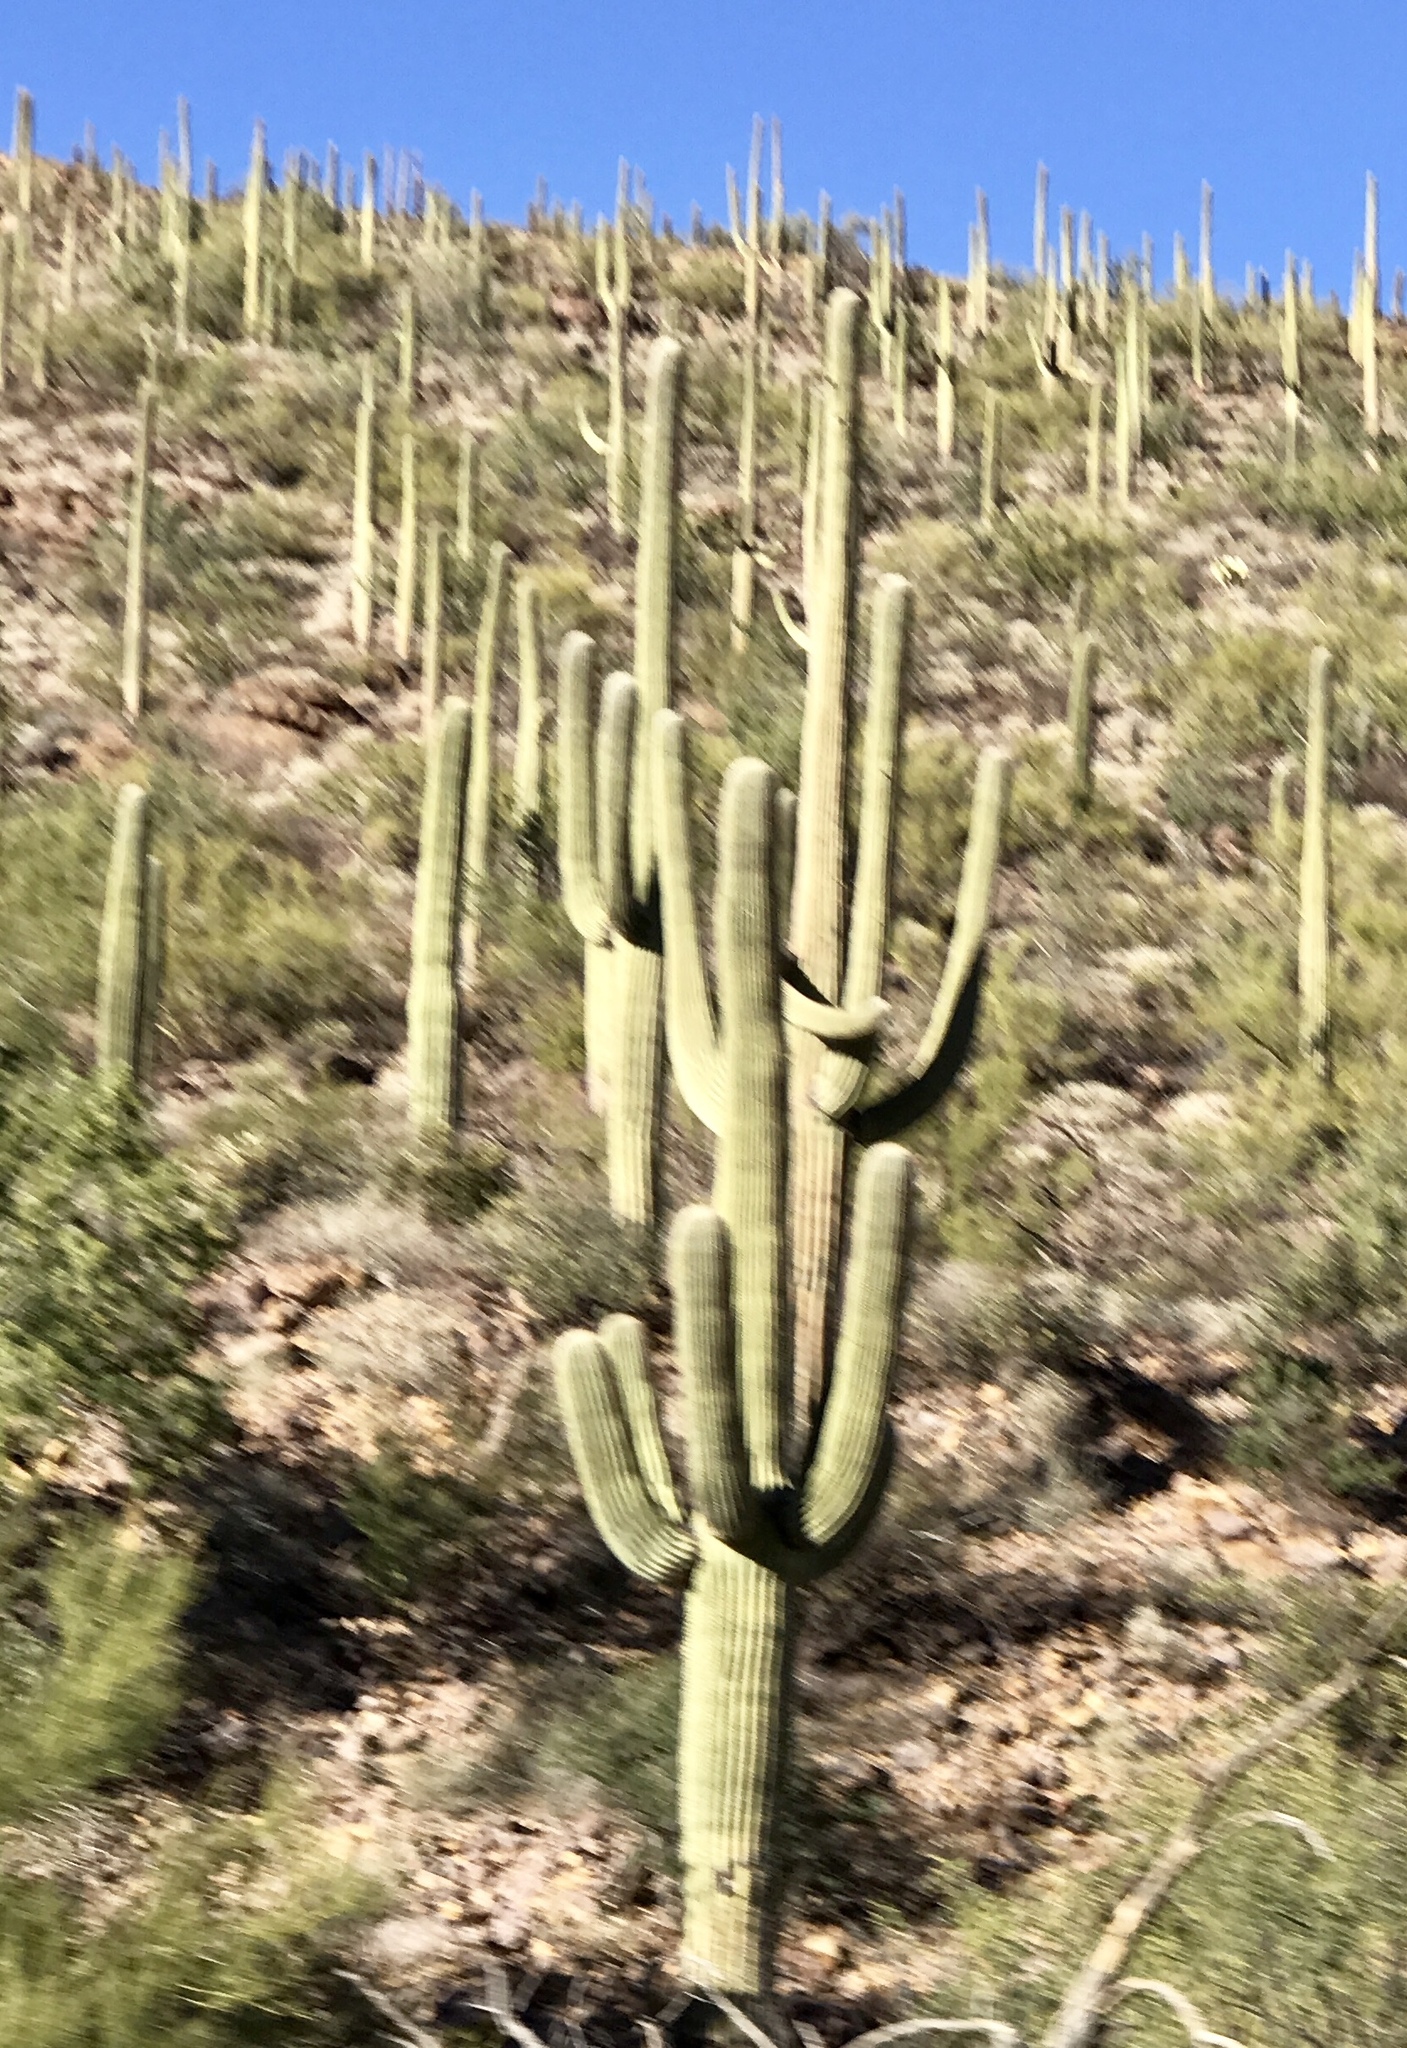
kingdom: Plantae
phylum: Tracheophyta
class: Magnoliopsida
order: Caryophyllales
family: Cactaceae
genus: Carnegiea
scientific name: Carnegiea gigantea
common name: Saguaro
